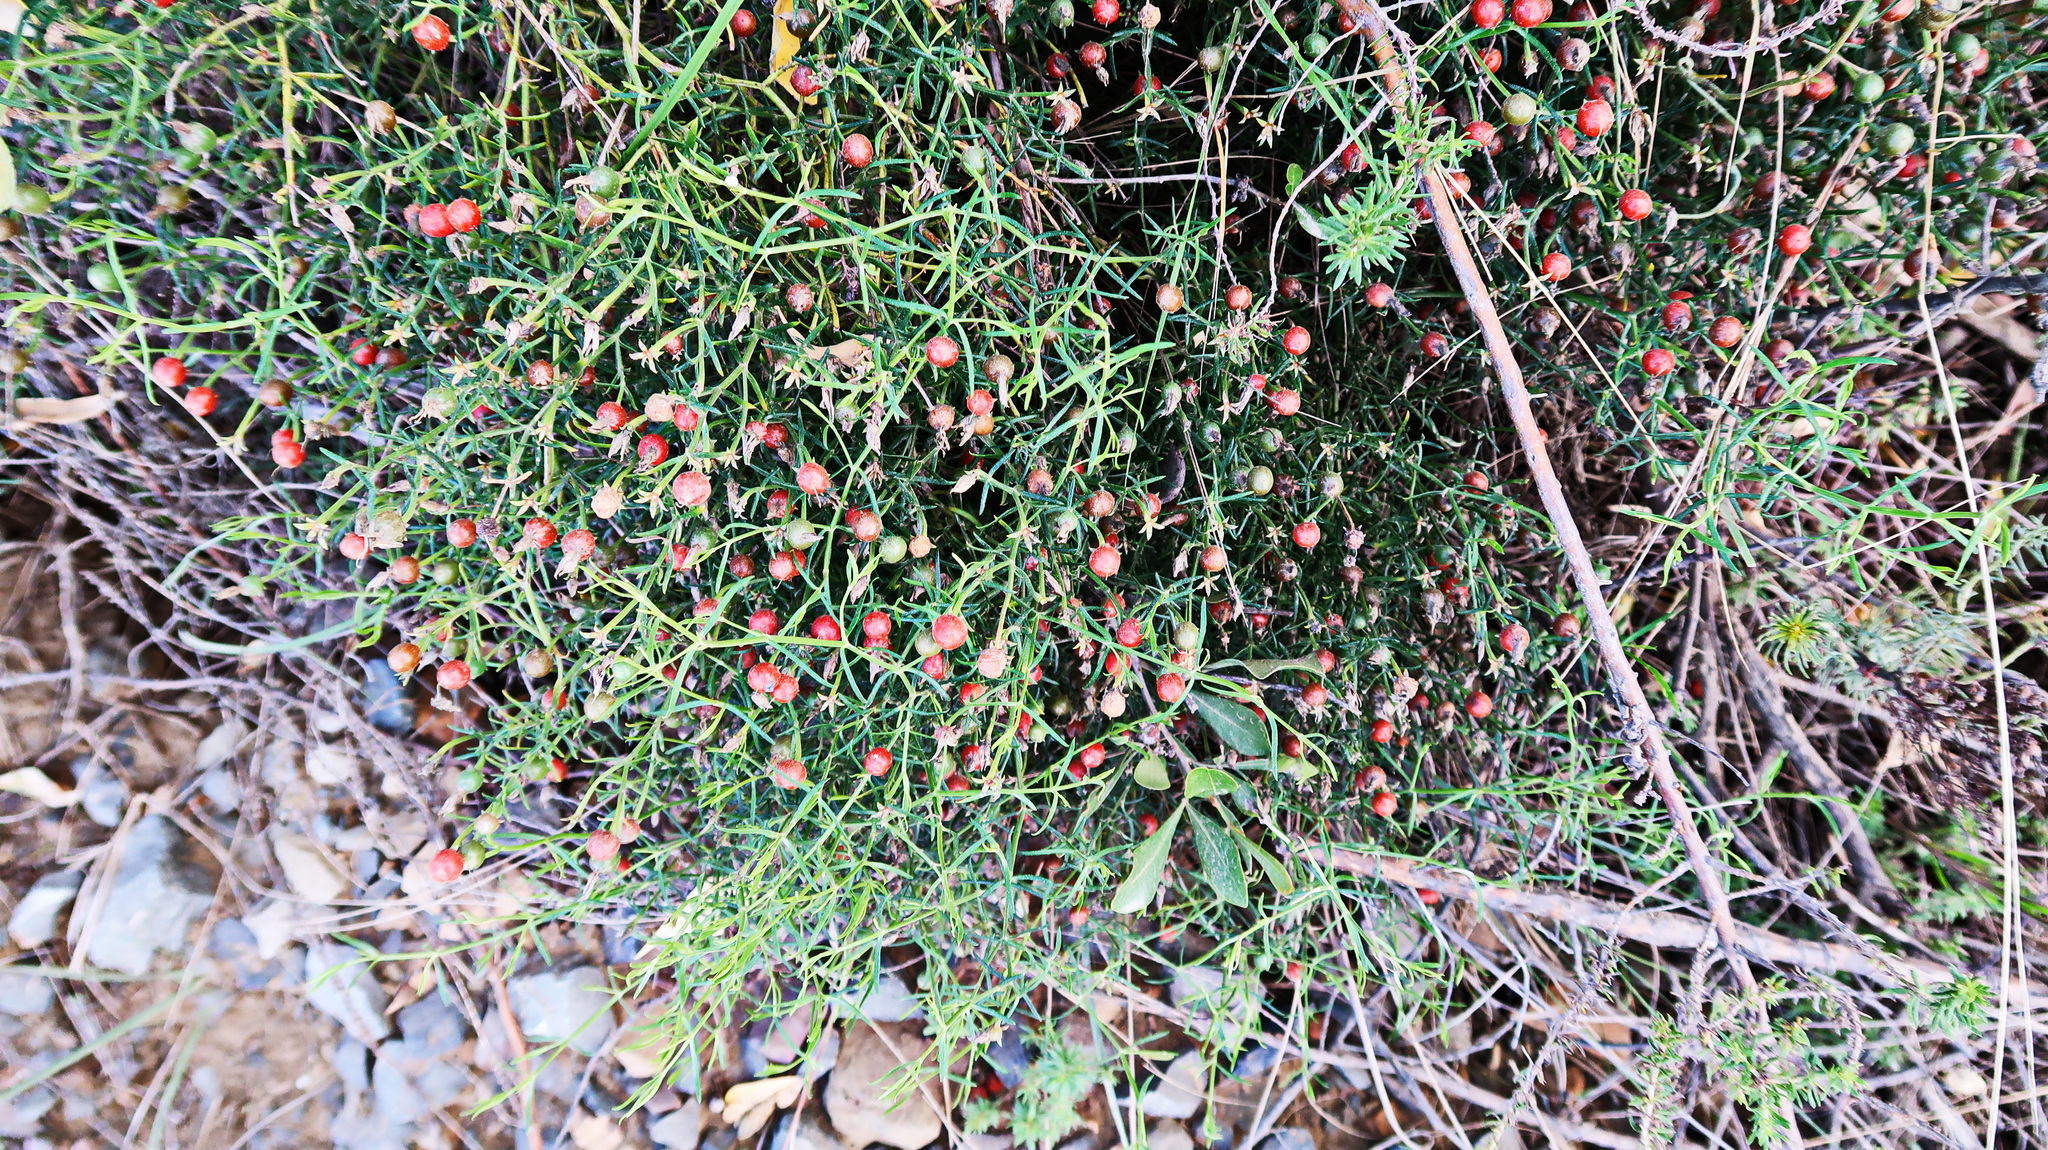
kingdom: Plantae
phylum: Tracheophyta
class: Magnoliopsida
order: Gentianales
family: Gentianaceae
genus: Chironia
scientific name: Chironia baccifera
